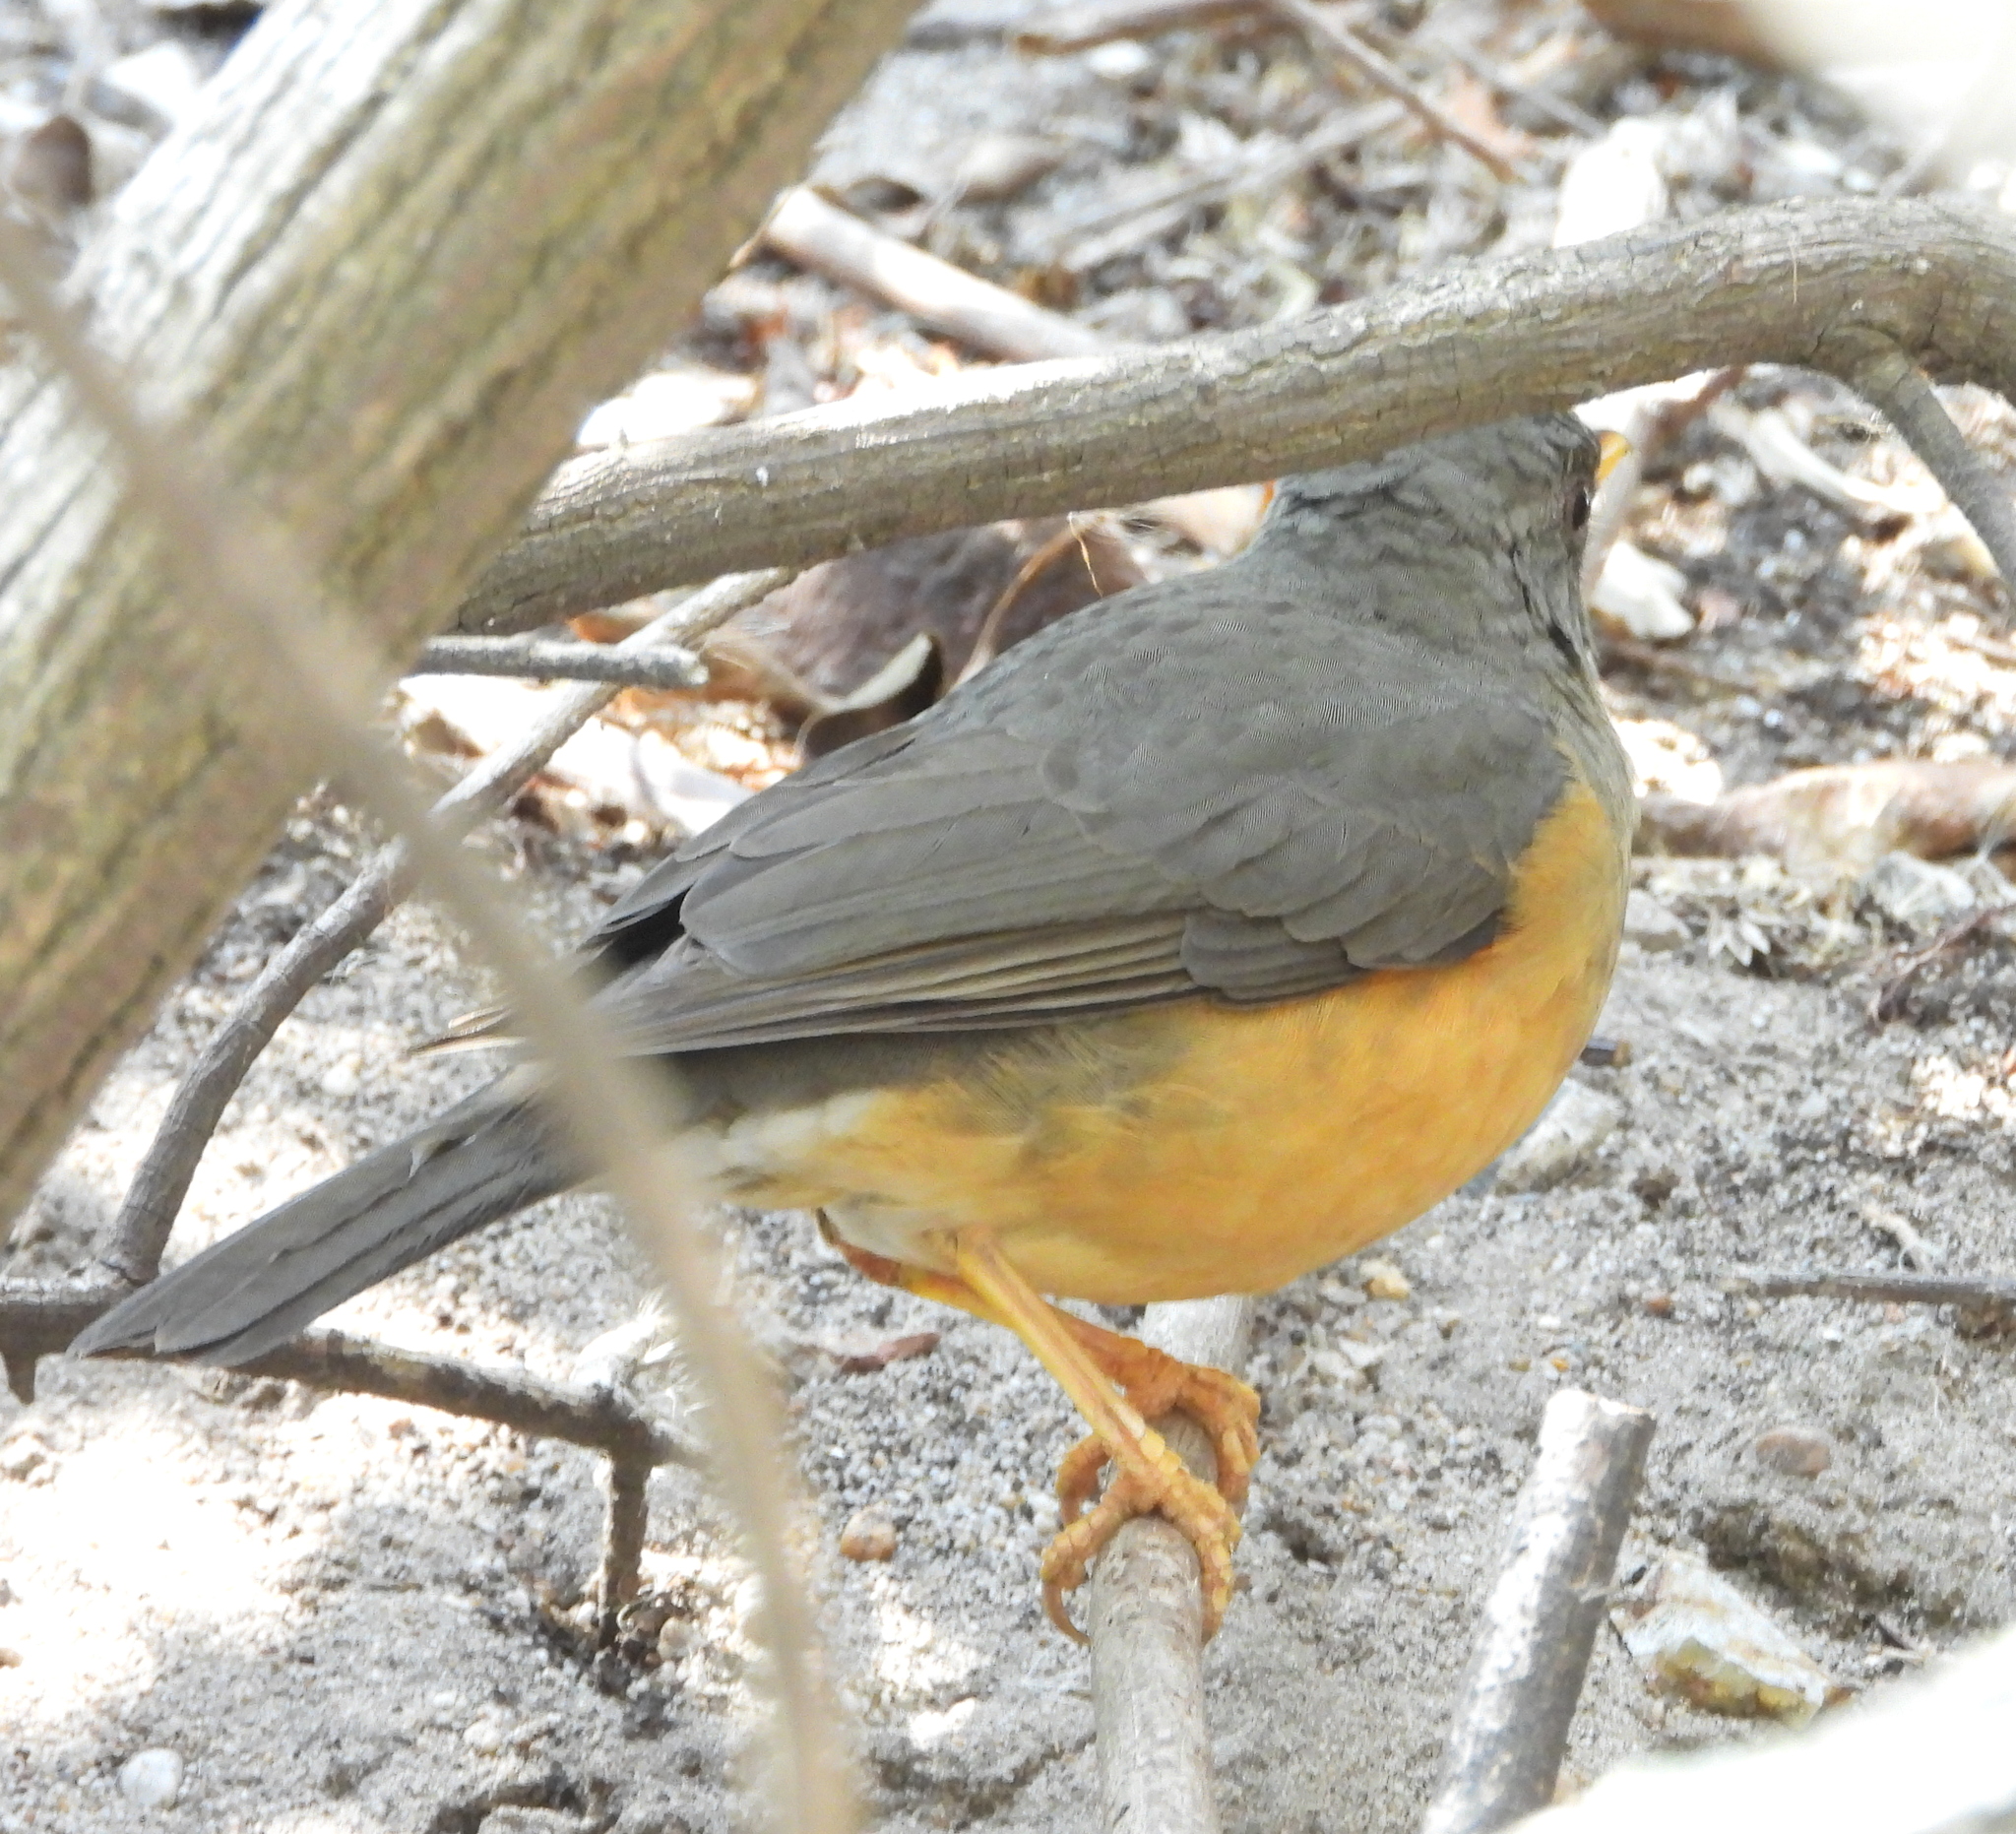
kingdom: Animalia
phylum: Chordata
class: Aves
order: Passeriformes
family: Turdidae
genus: Turdus
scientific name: Turdus olivaceus
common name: Olive thrush
